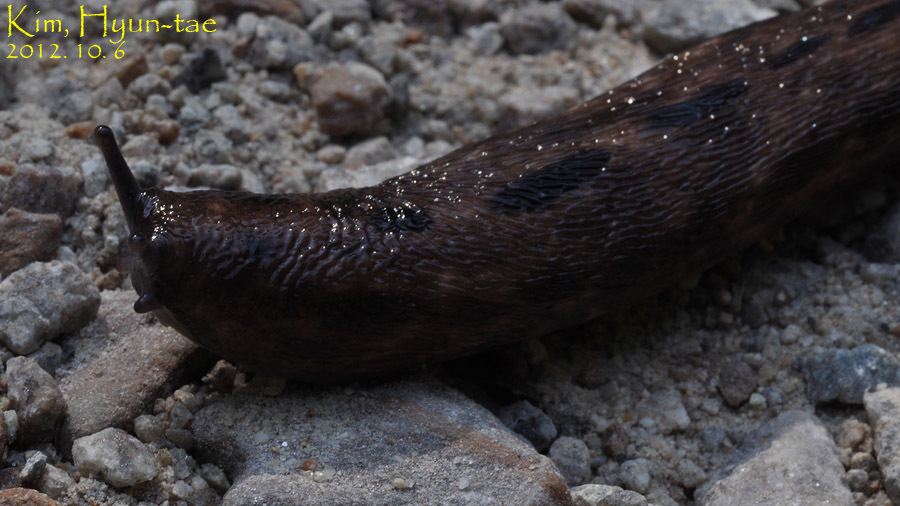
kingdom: Animalia
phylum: Mollusca
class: Gastropoda
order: Stylommatophora
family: Philomycidae
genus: Meghimatium
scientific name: Meghimatium fruhstorferi
